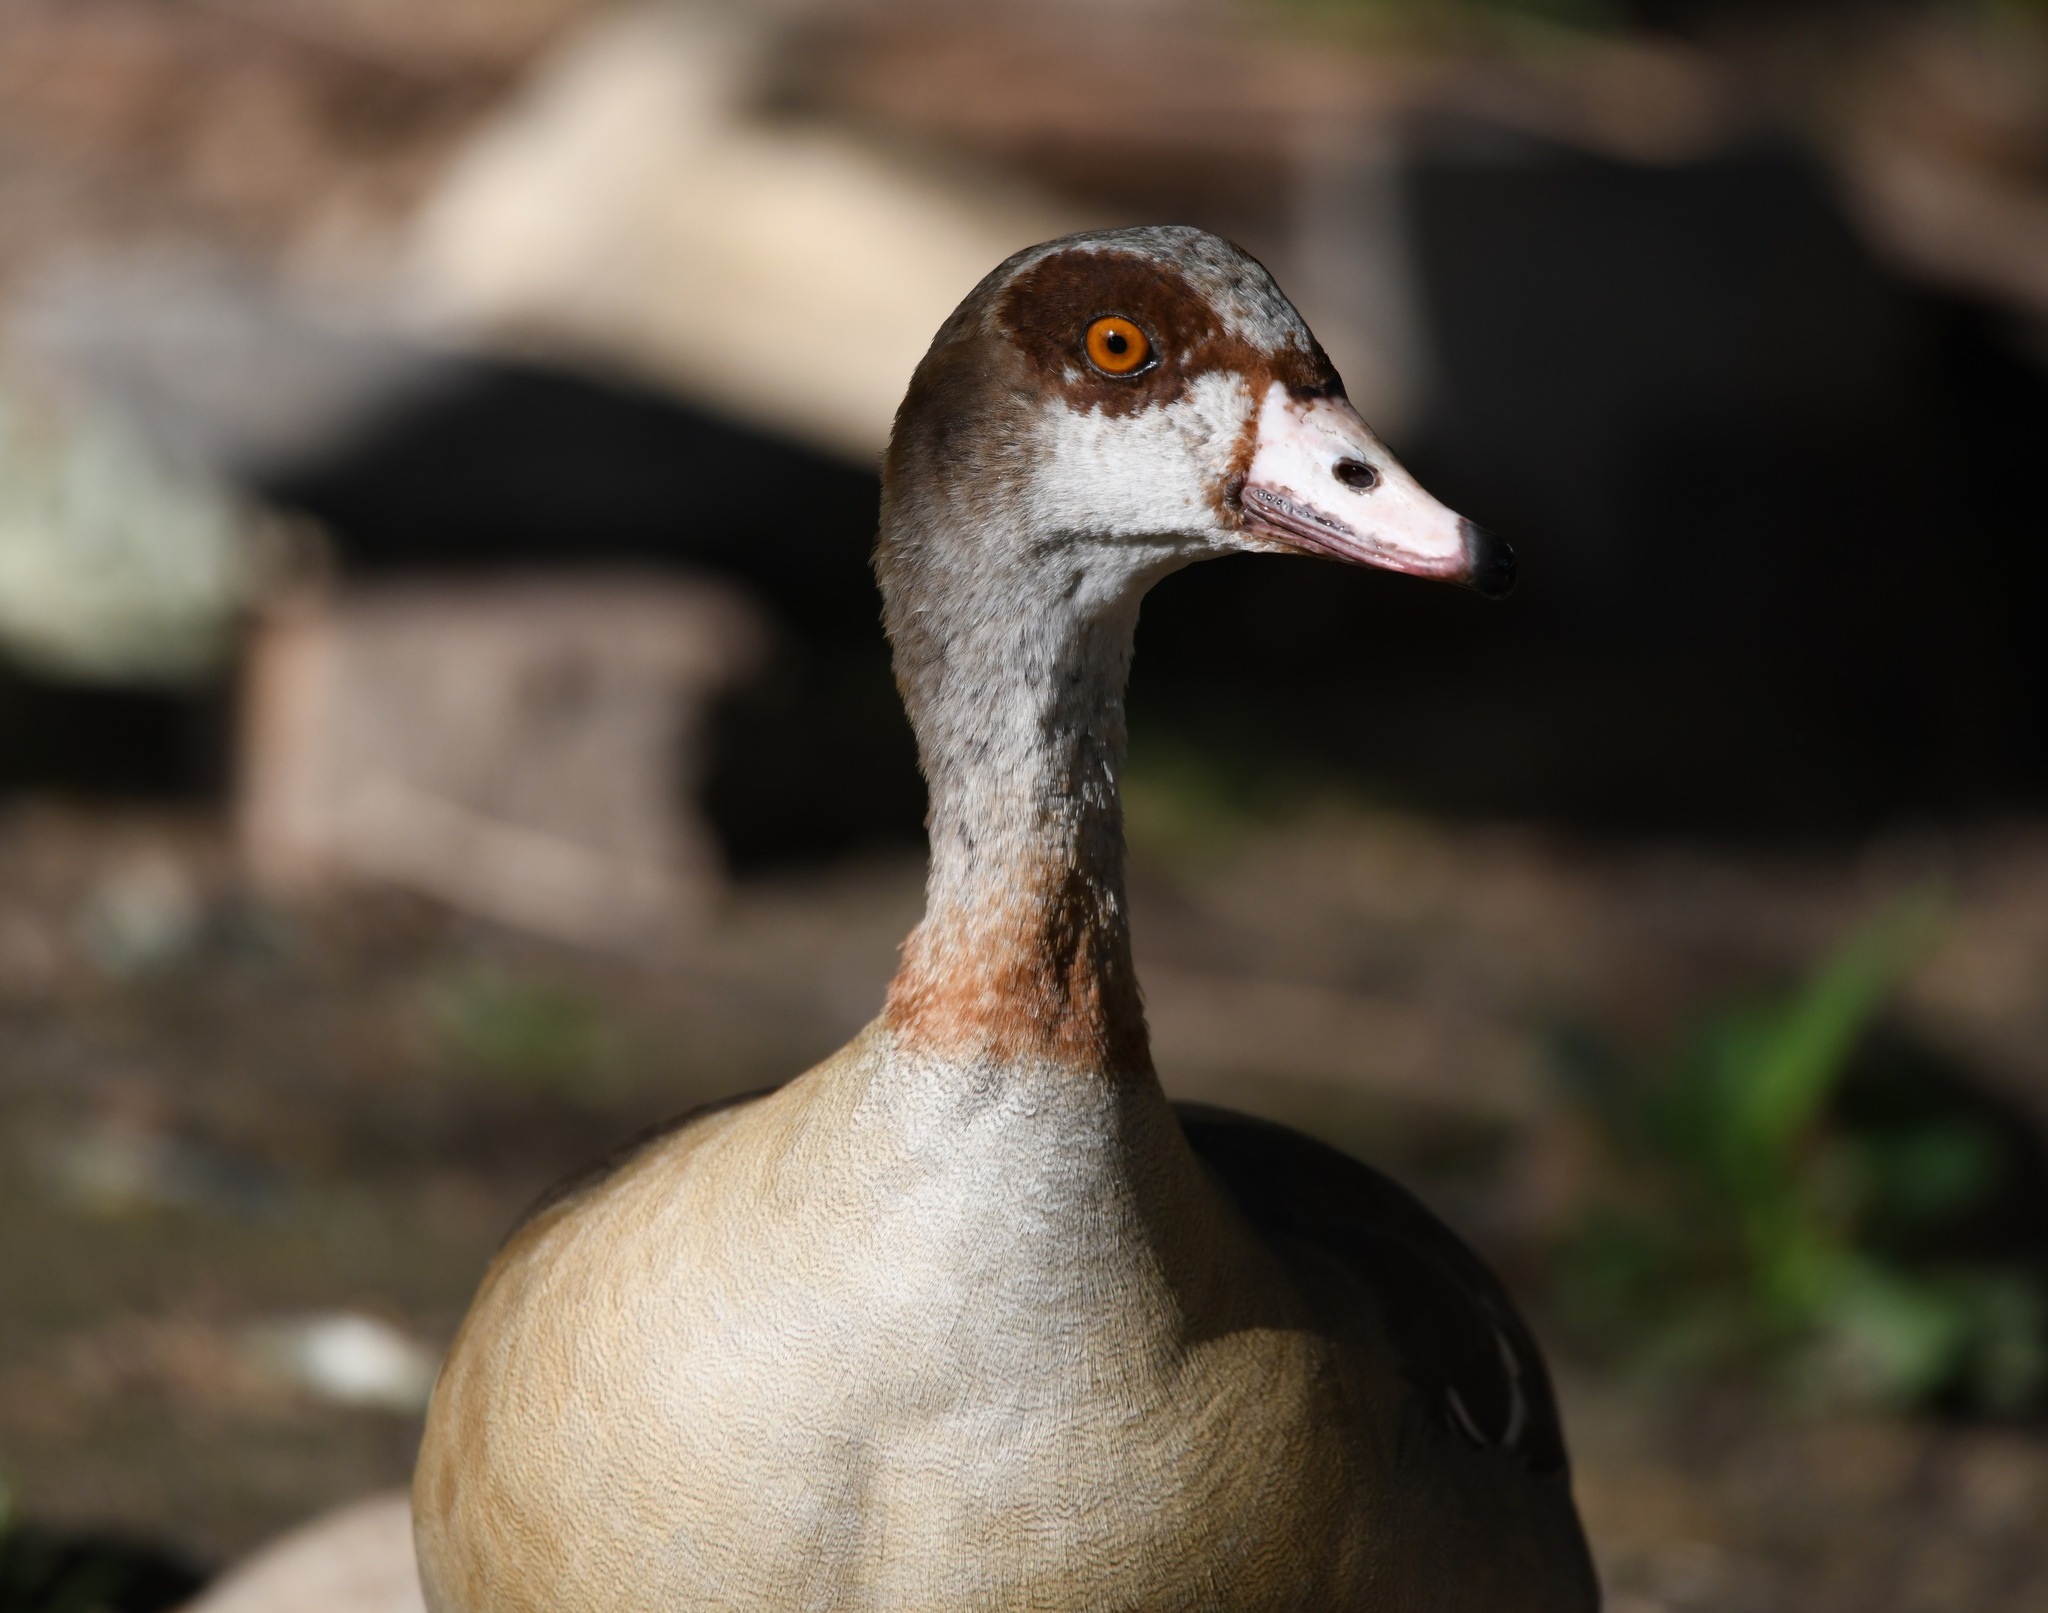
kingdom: Animalia
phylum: Chordata
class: Aves
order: Anseriformes
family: Anatidae
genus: Alopochen
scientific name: Alopochen aegyptiaca
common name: Egyptian goose
